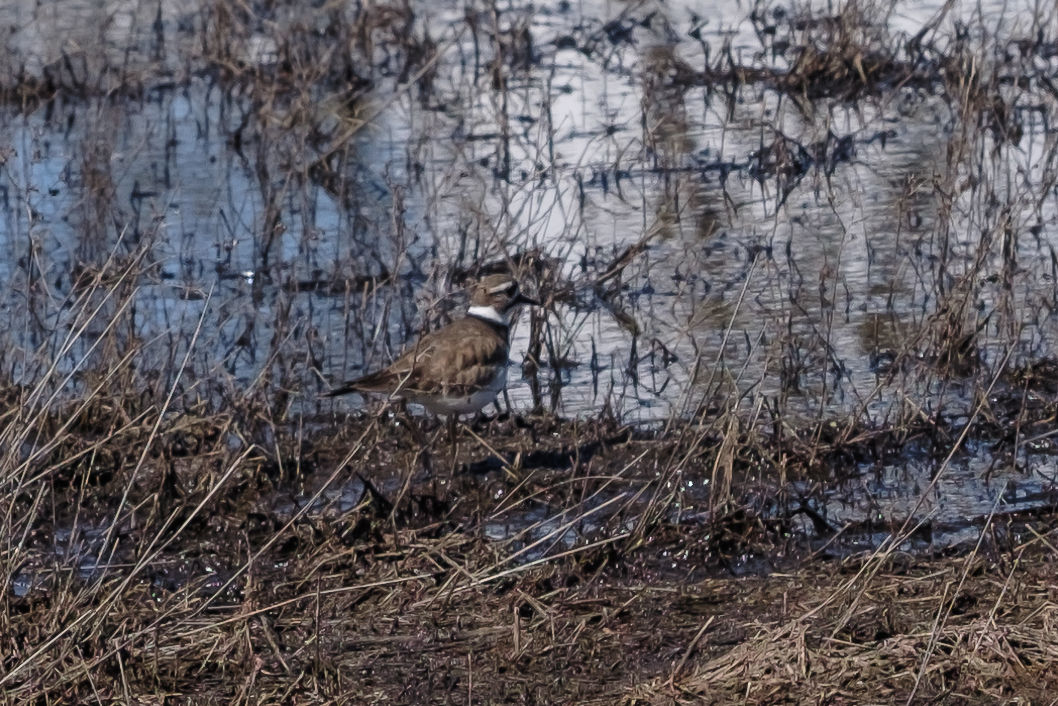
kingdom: Animalia
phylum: Chordata
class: Aves
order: Charadriiformes
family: Charadriidae
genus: Charadrius
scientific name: Charadrius vociferus
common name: Killdeer
